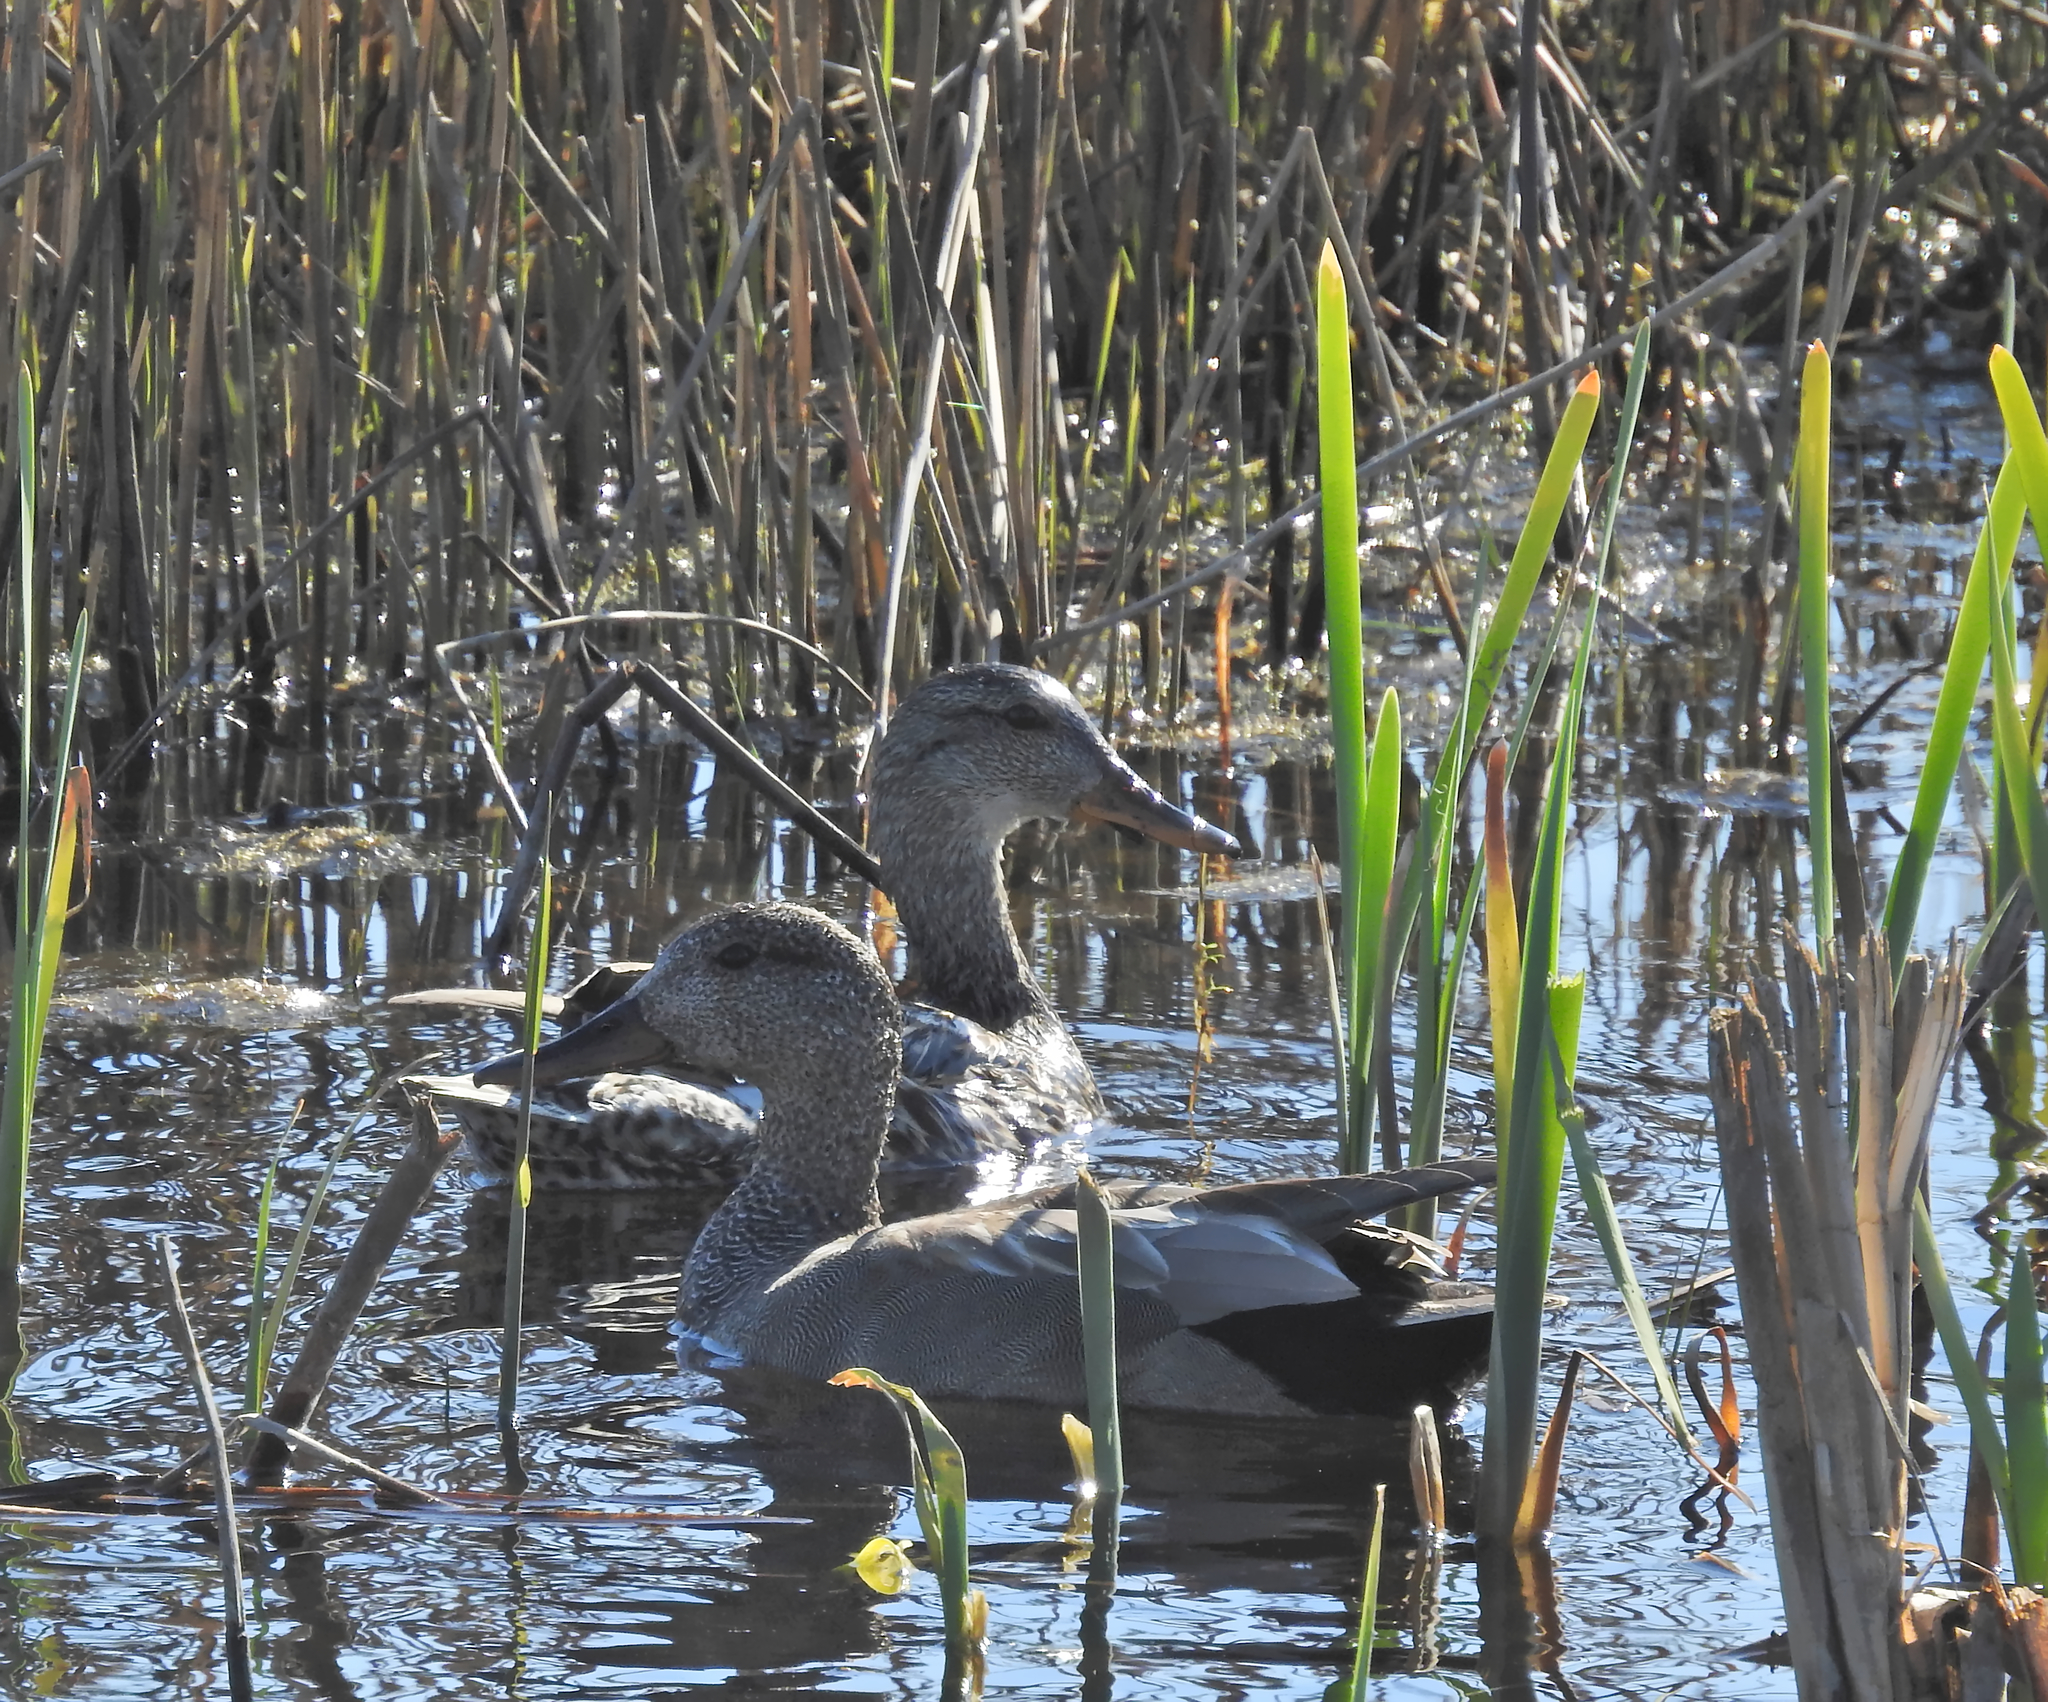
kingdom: Animalia
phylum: Chordata
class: Aves
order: Anseriformes
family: Anatidae
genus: Mareca
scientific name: Mareca strepera
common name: Gadwall
